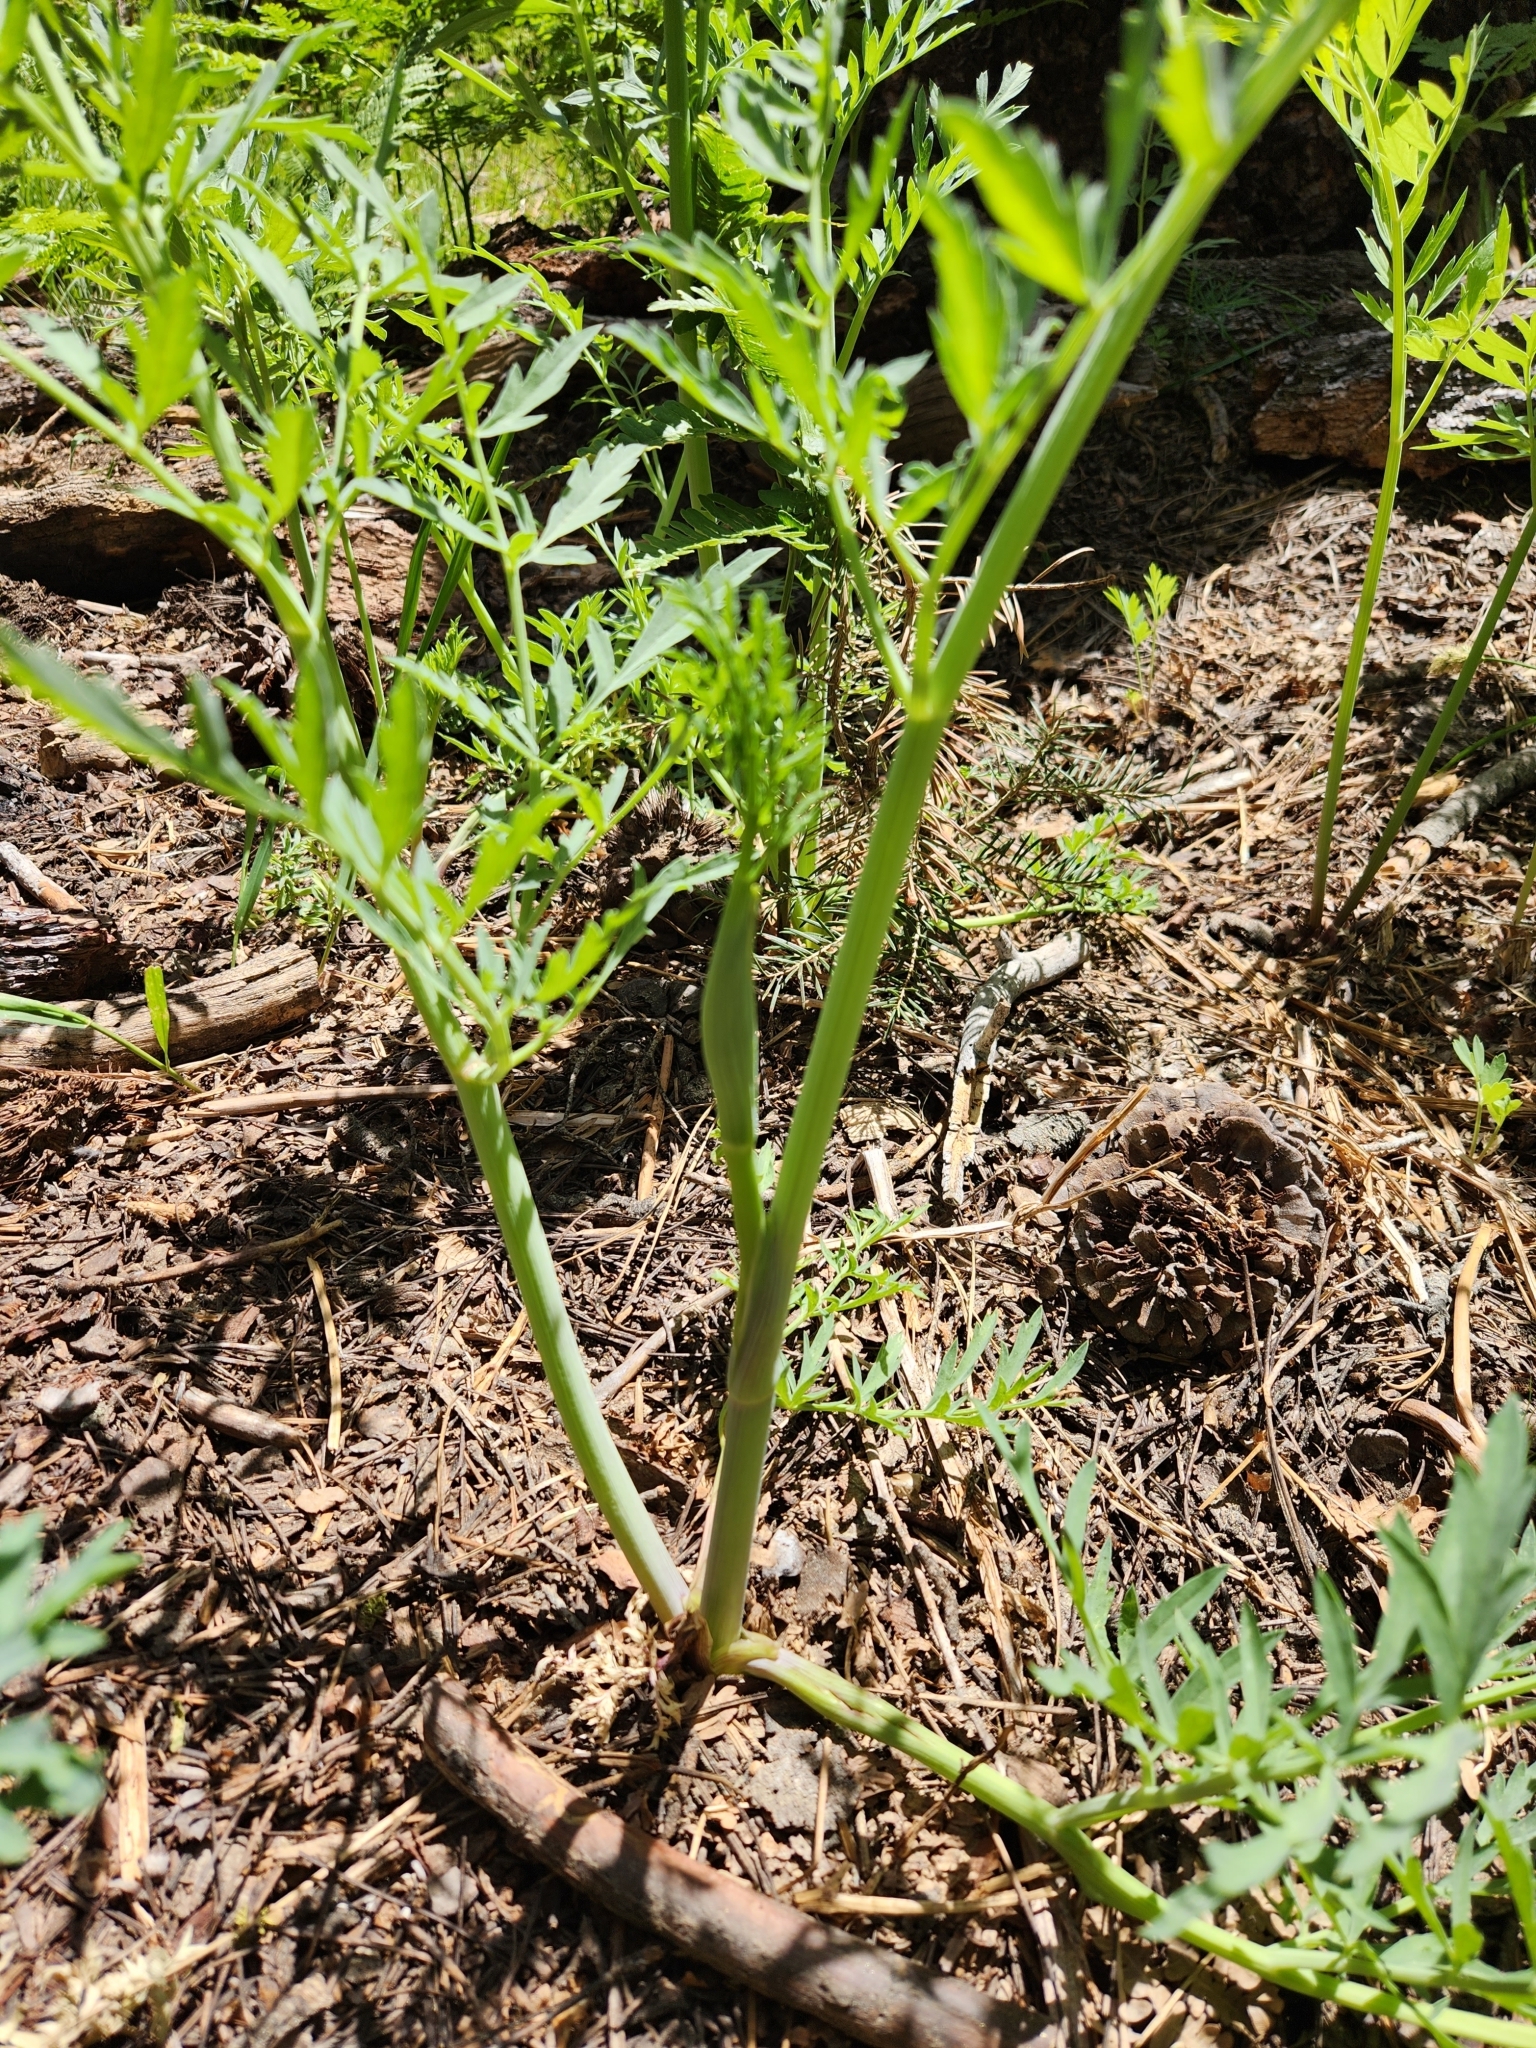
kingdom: Plantae
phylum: Tracheophyta
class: Magnoliopsida
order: Apiales
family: Apiaceae
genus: Angelica
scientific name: Angelica capitellata
